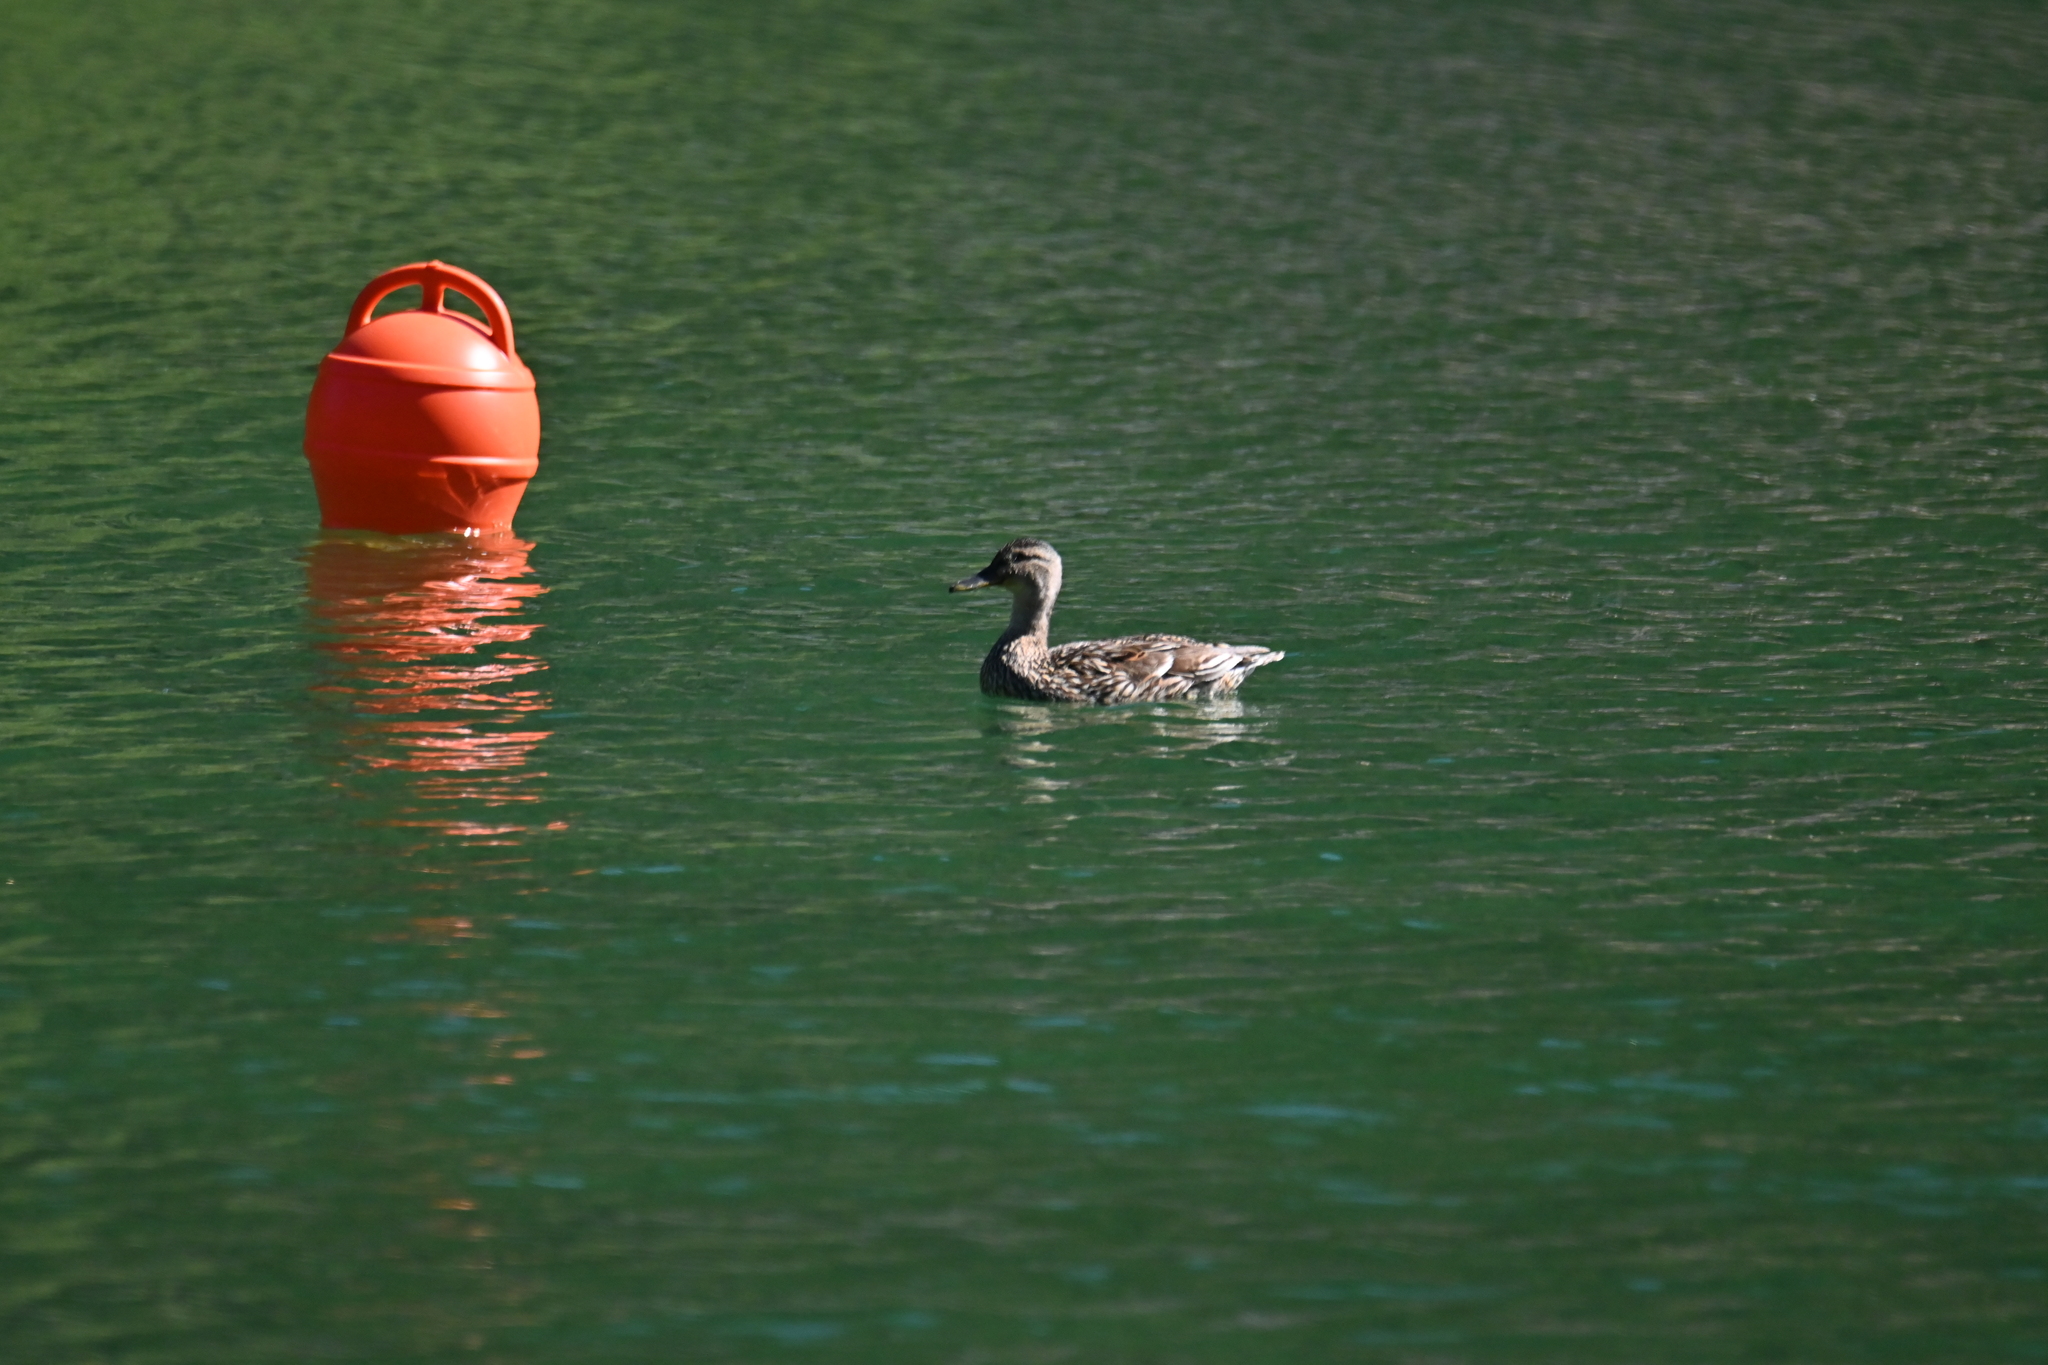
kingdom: Animalia
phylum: Chordata
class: Aves
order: Anseriformes
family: Anatidae
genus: Anas
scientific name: Anas platyrhynchos
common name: Mallard
